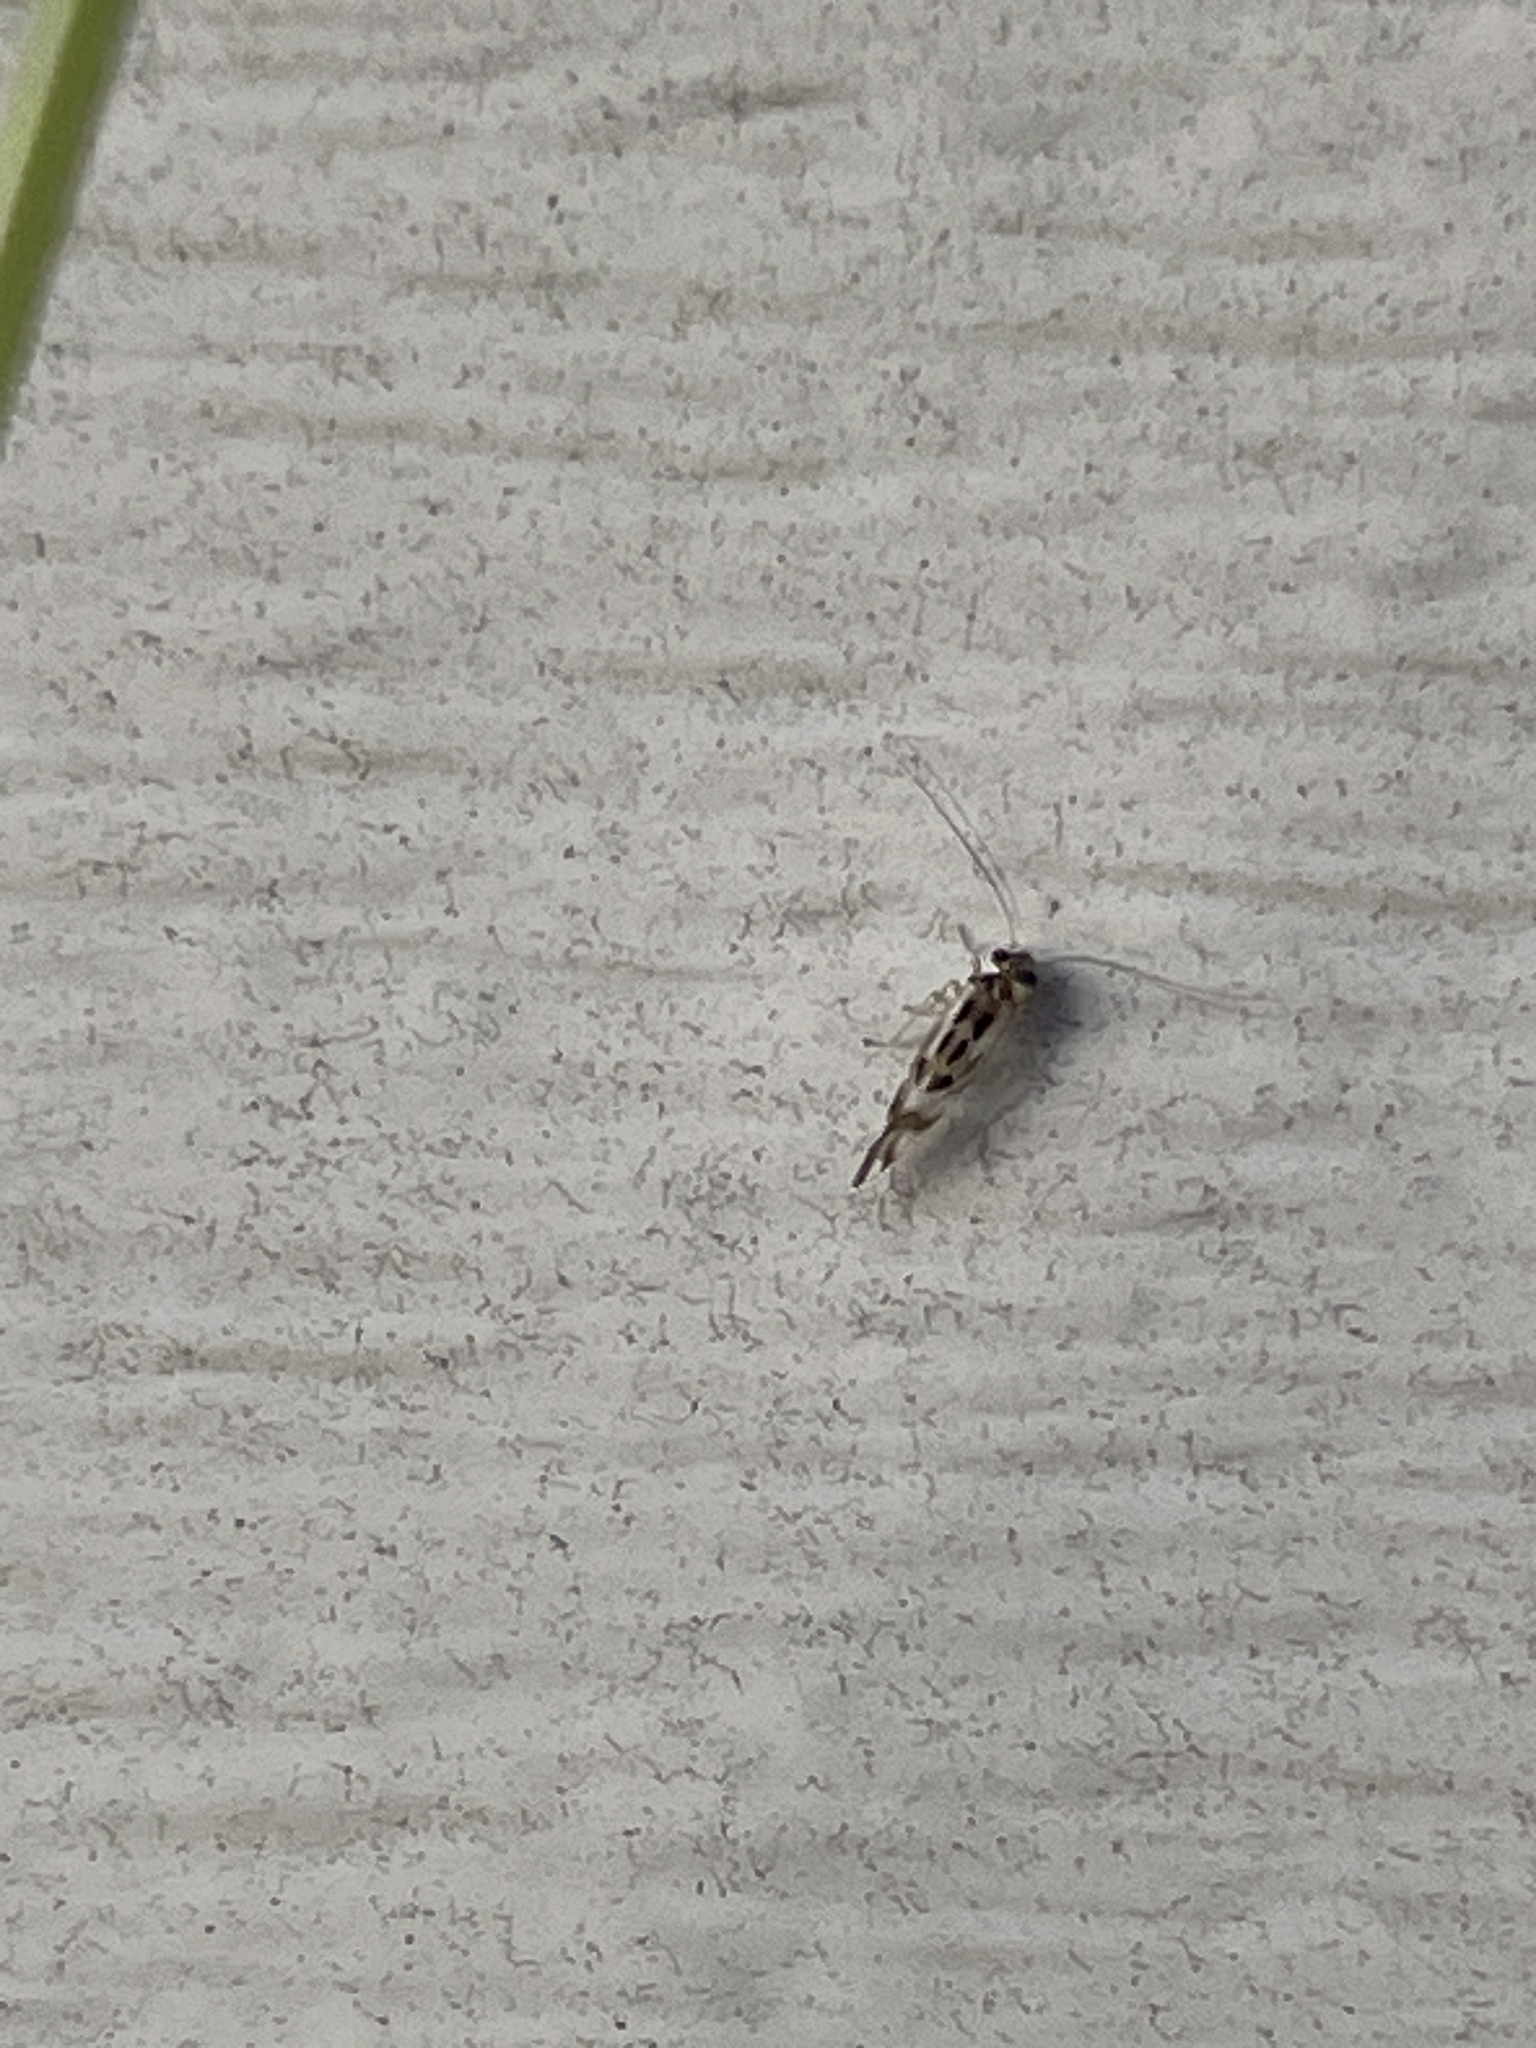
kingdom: Animalia
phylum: Arthropoda
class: Insecta
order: Psocodea
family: Stenopsocidae
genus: Graphopsocus
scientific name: Graphopsocus cruciatus
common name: Lizard bark louse
